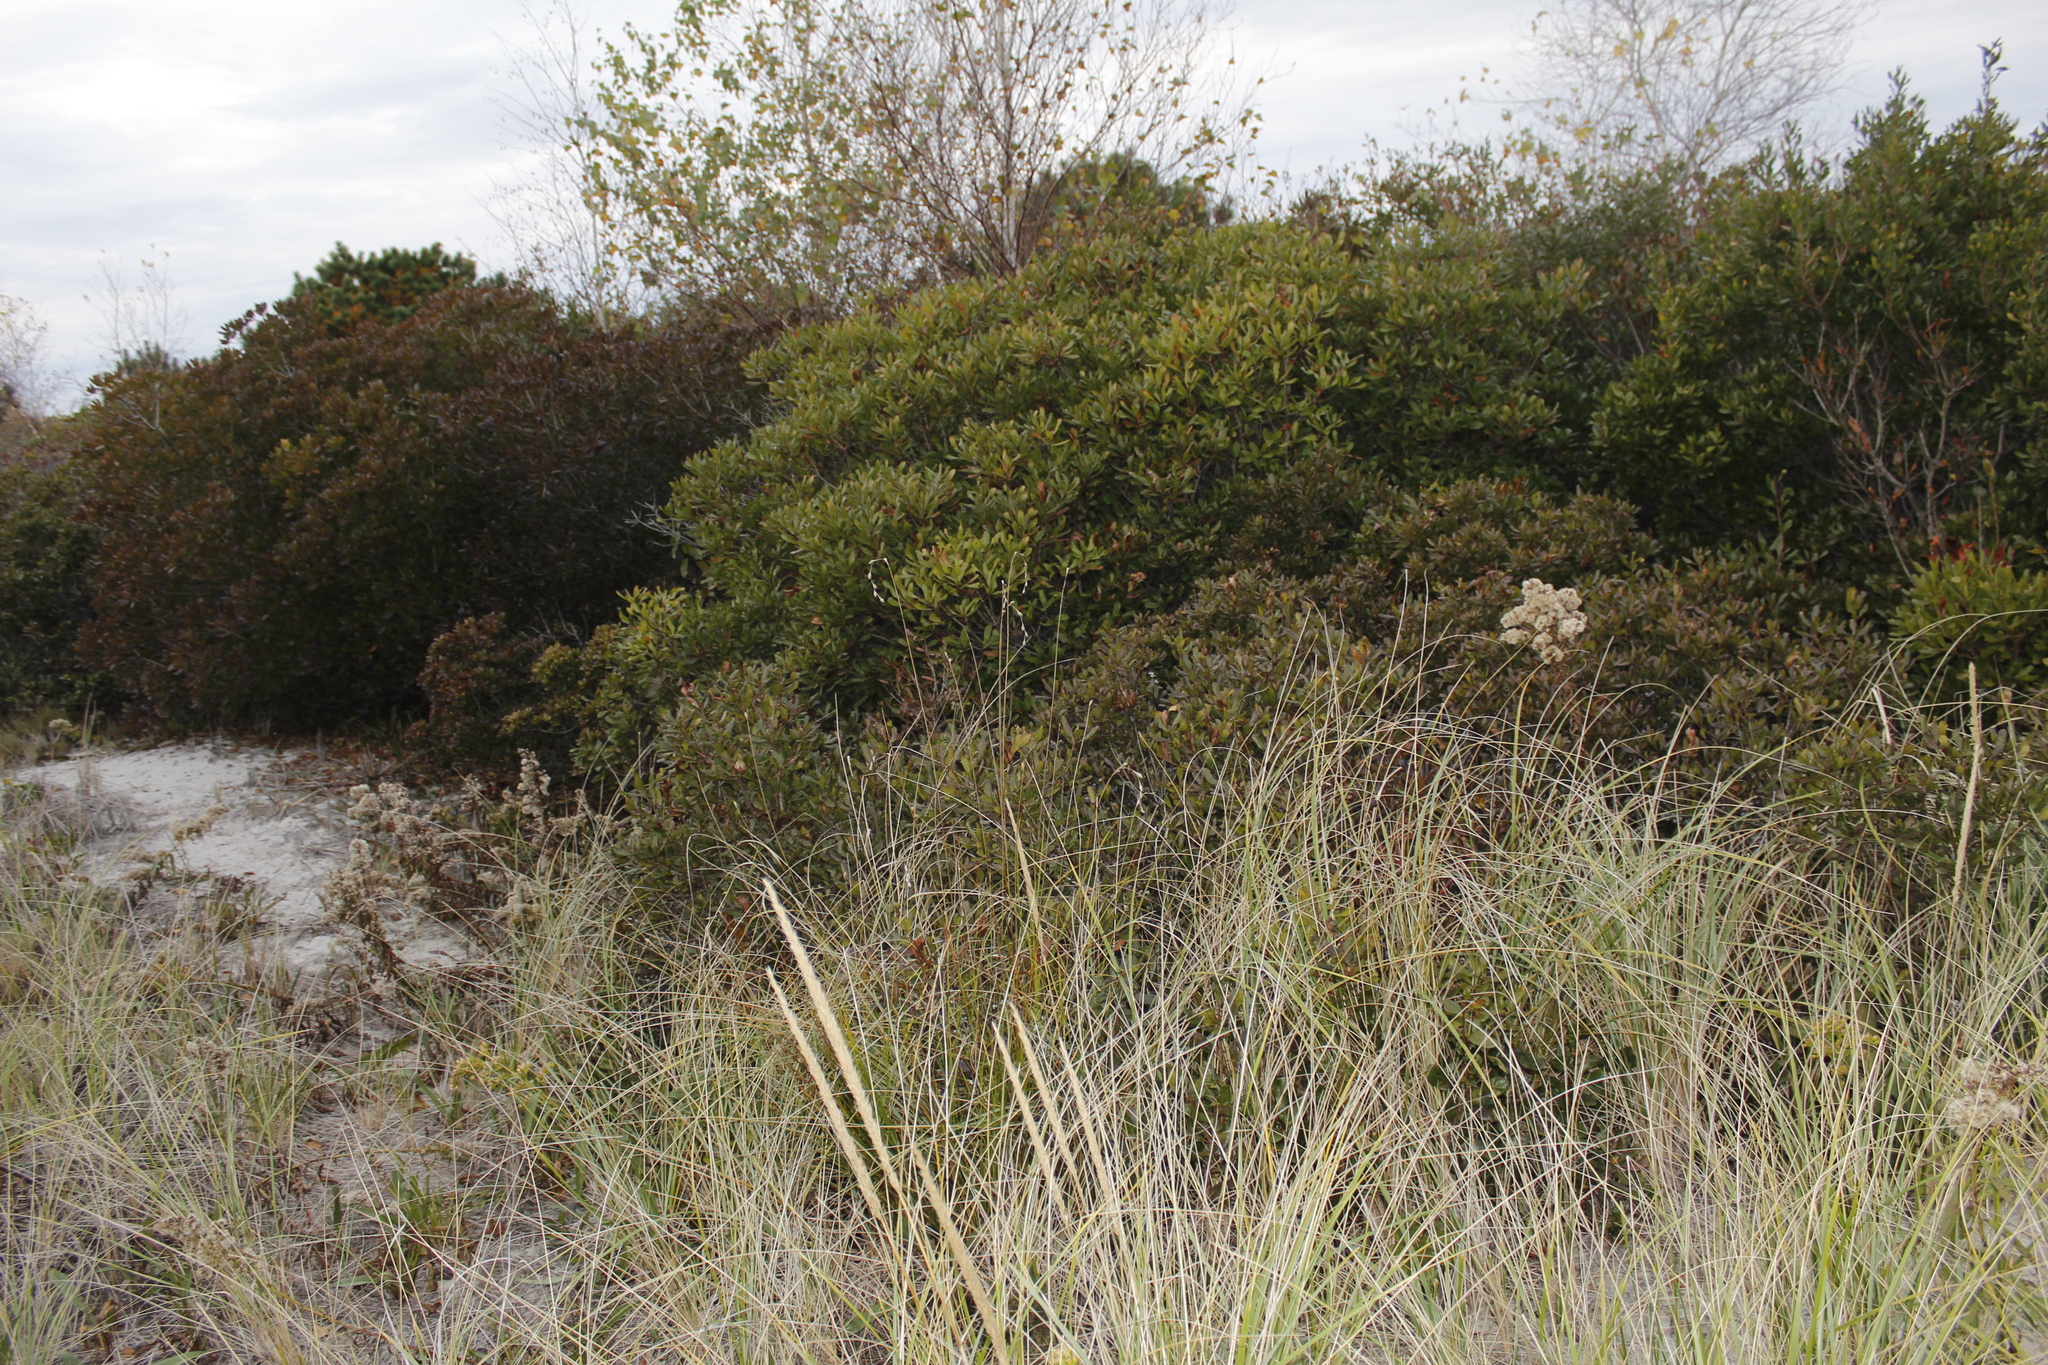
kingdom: Plantae
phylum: Tracheophyta
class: Liliopsida
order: Poales
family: Cyperaceae
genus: Carex
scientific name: Carex silicea
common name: Beach sedge
